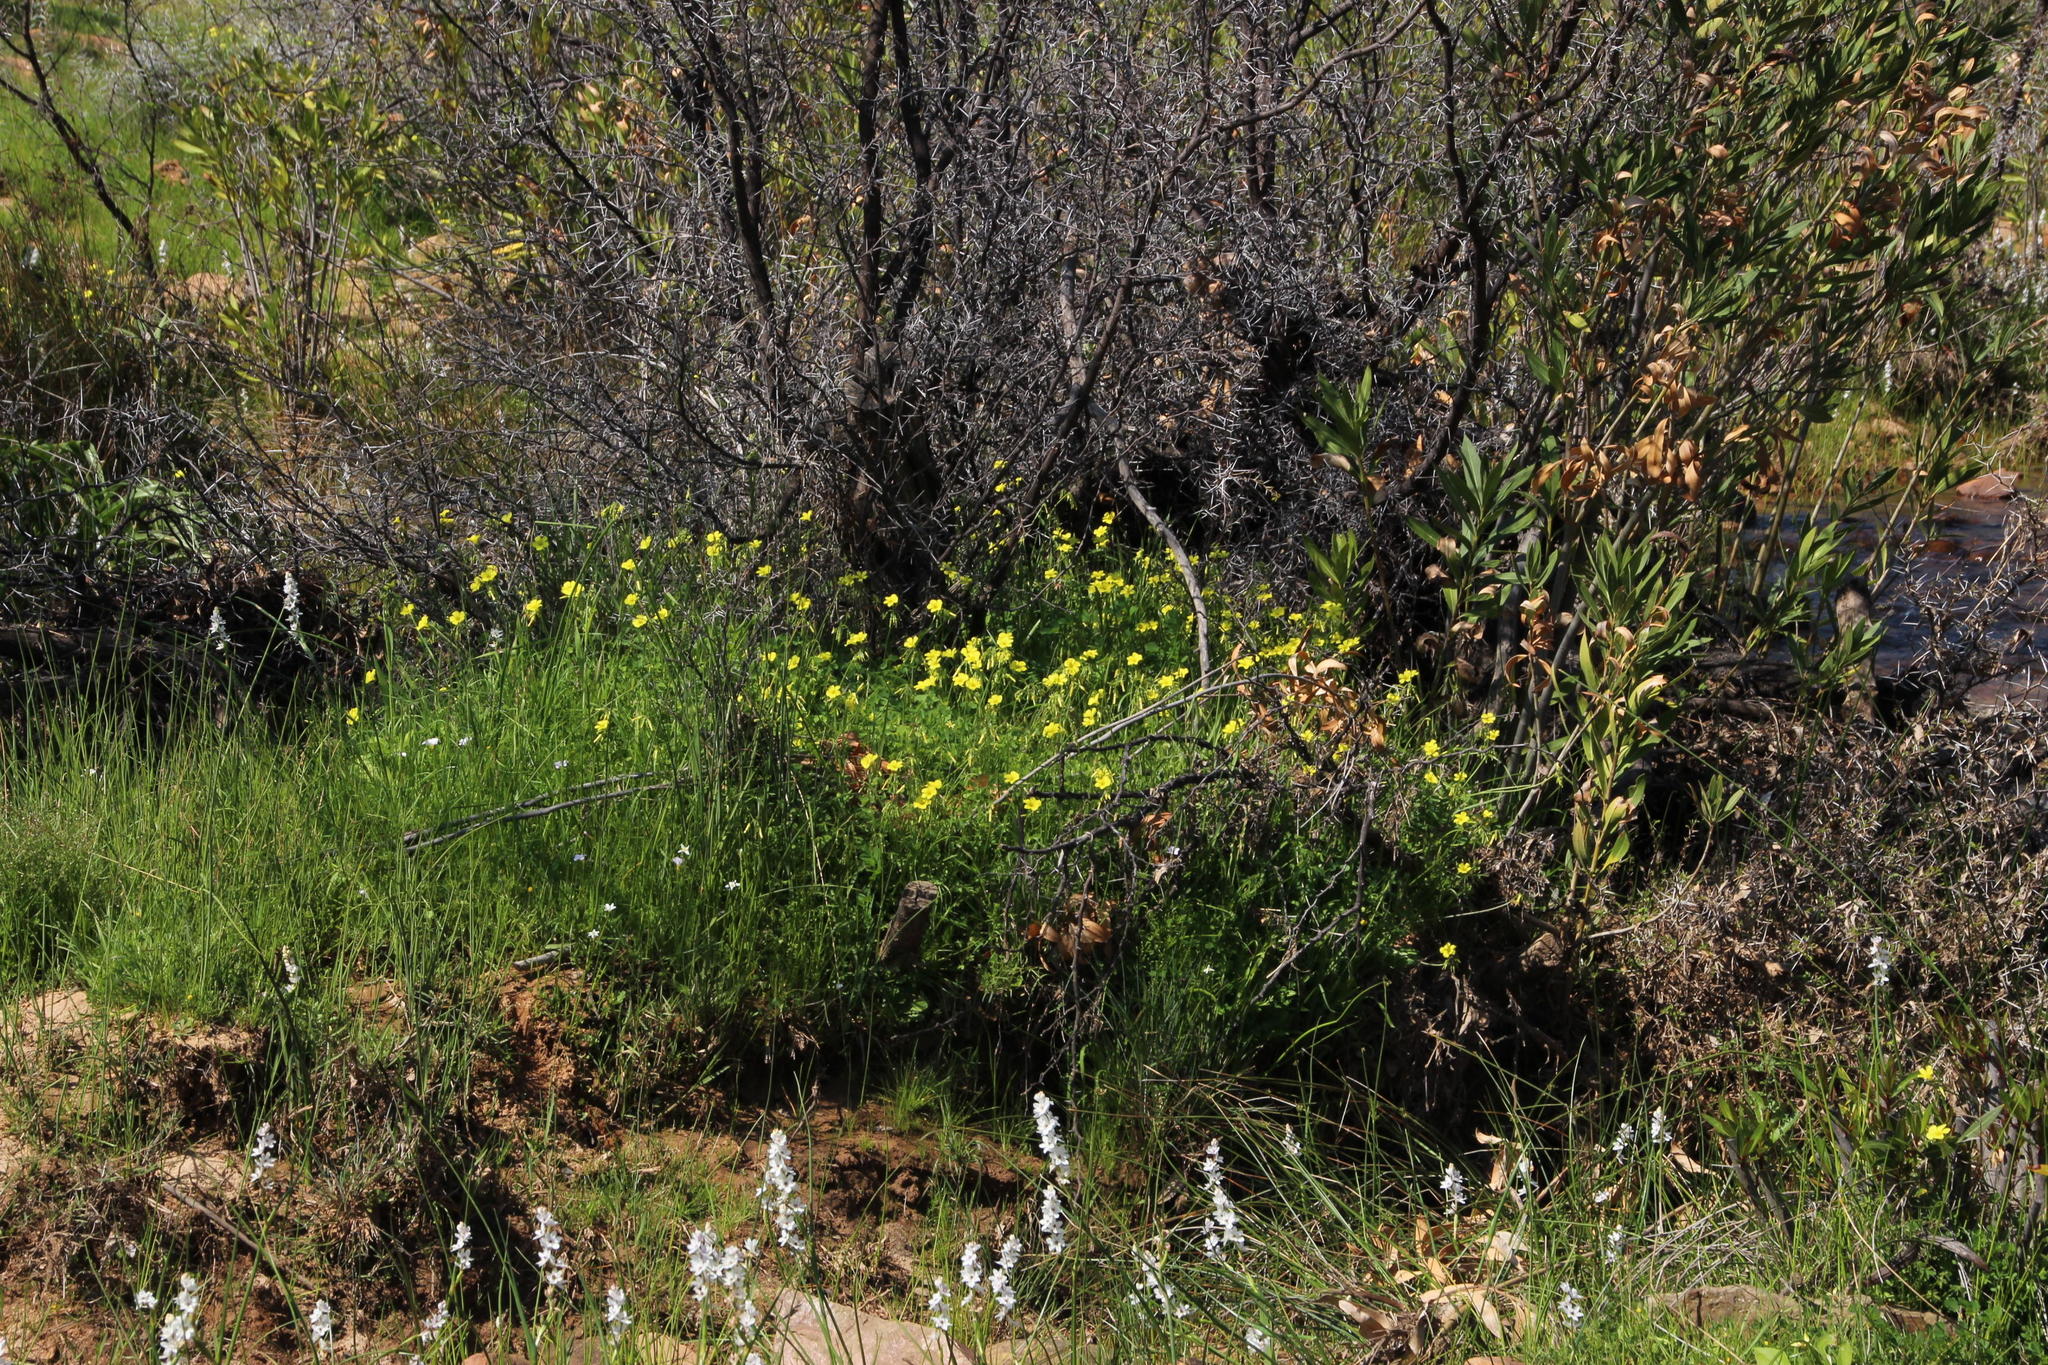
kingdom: Plantae
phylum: Tracheophyta
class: Magnoliopsida
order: Oxalidales
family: Oxalidaceae
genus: Oxalis
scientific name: Oxalis pes-caprae
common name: Bermuda-buttercup
